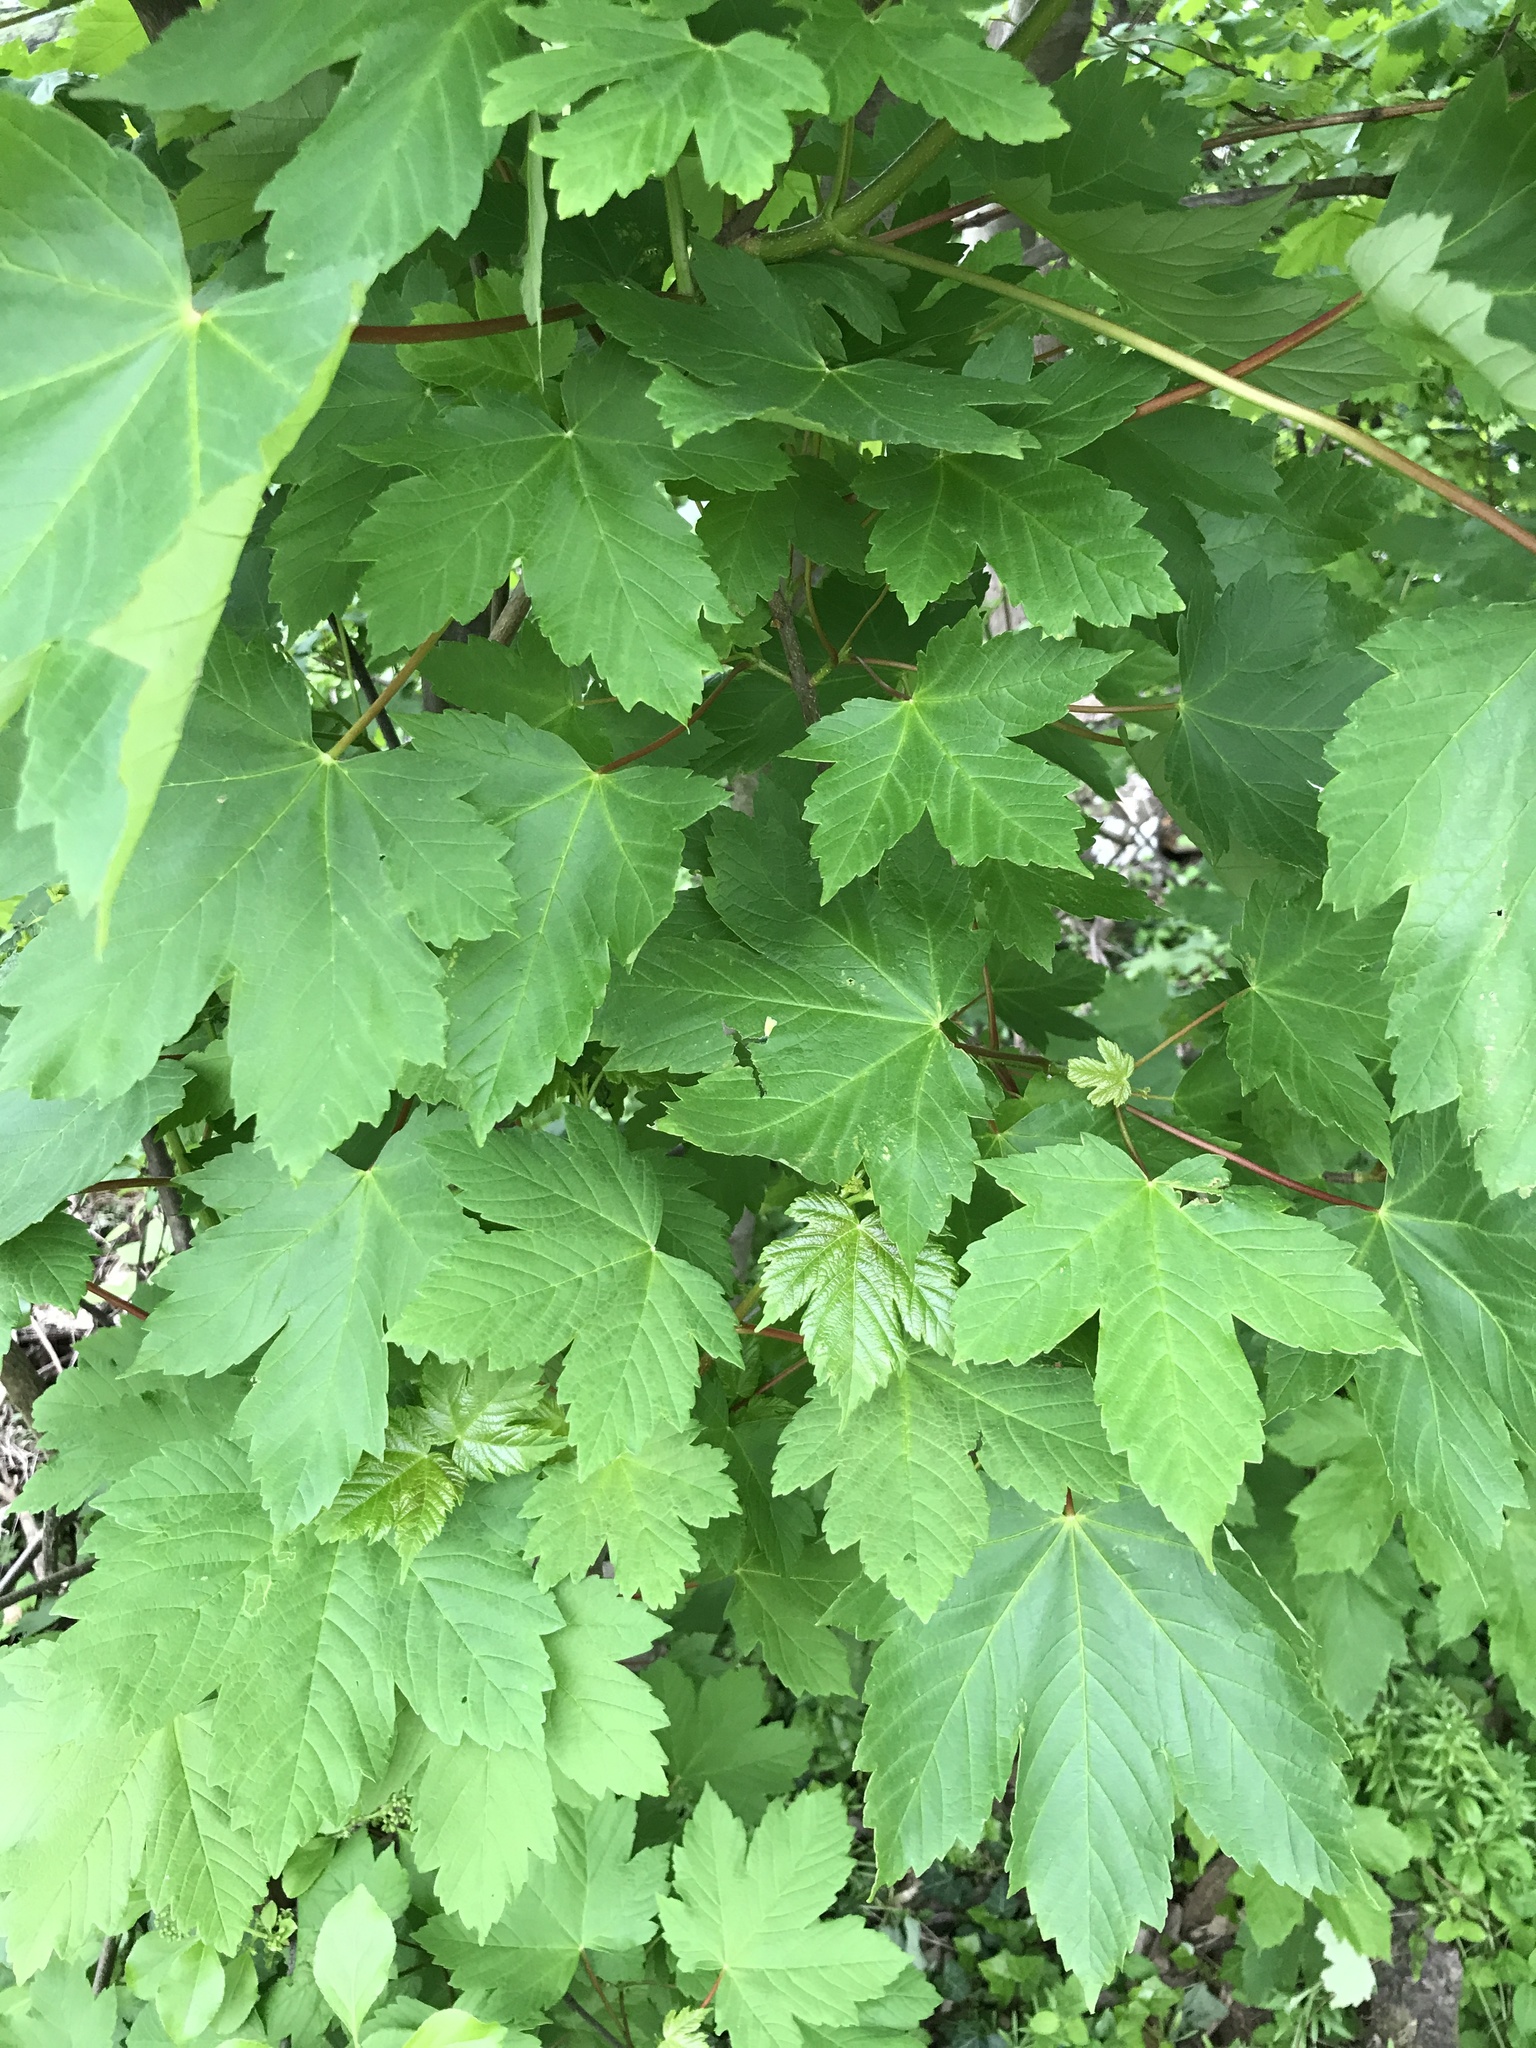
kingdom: Plantae
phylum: Tracheophyta
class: Magnoliopsida
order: Sapindales
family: Sapindaceae
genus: Acer
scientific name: Acer pseudoplatanus
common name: Sycamore
